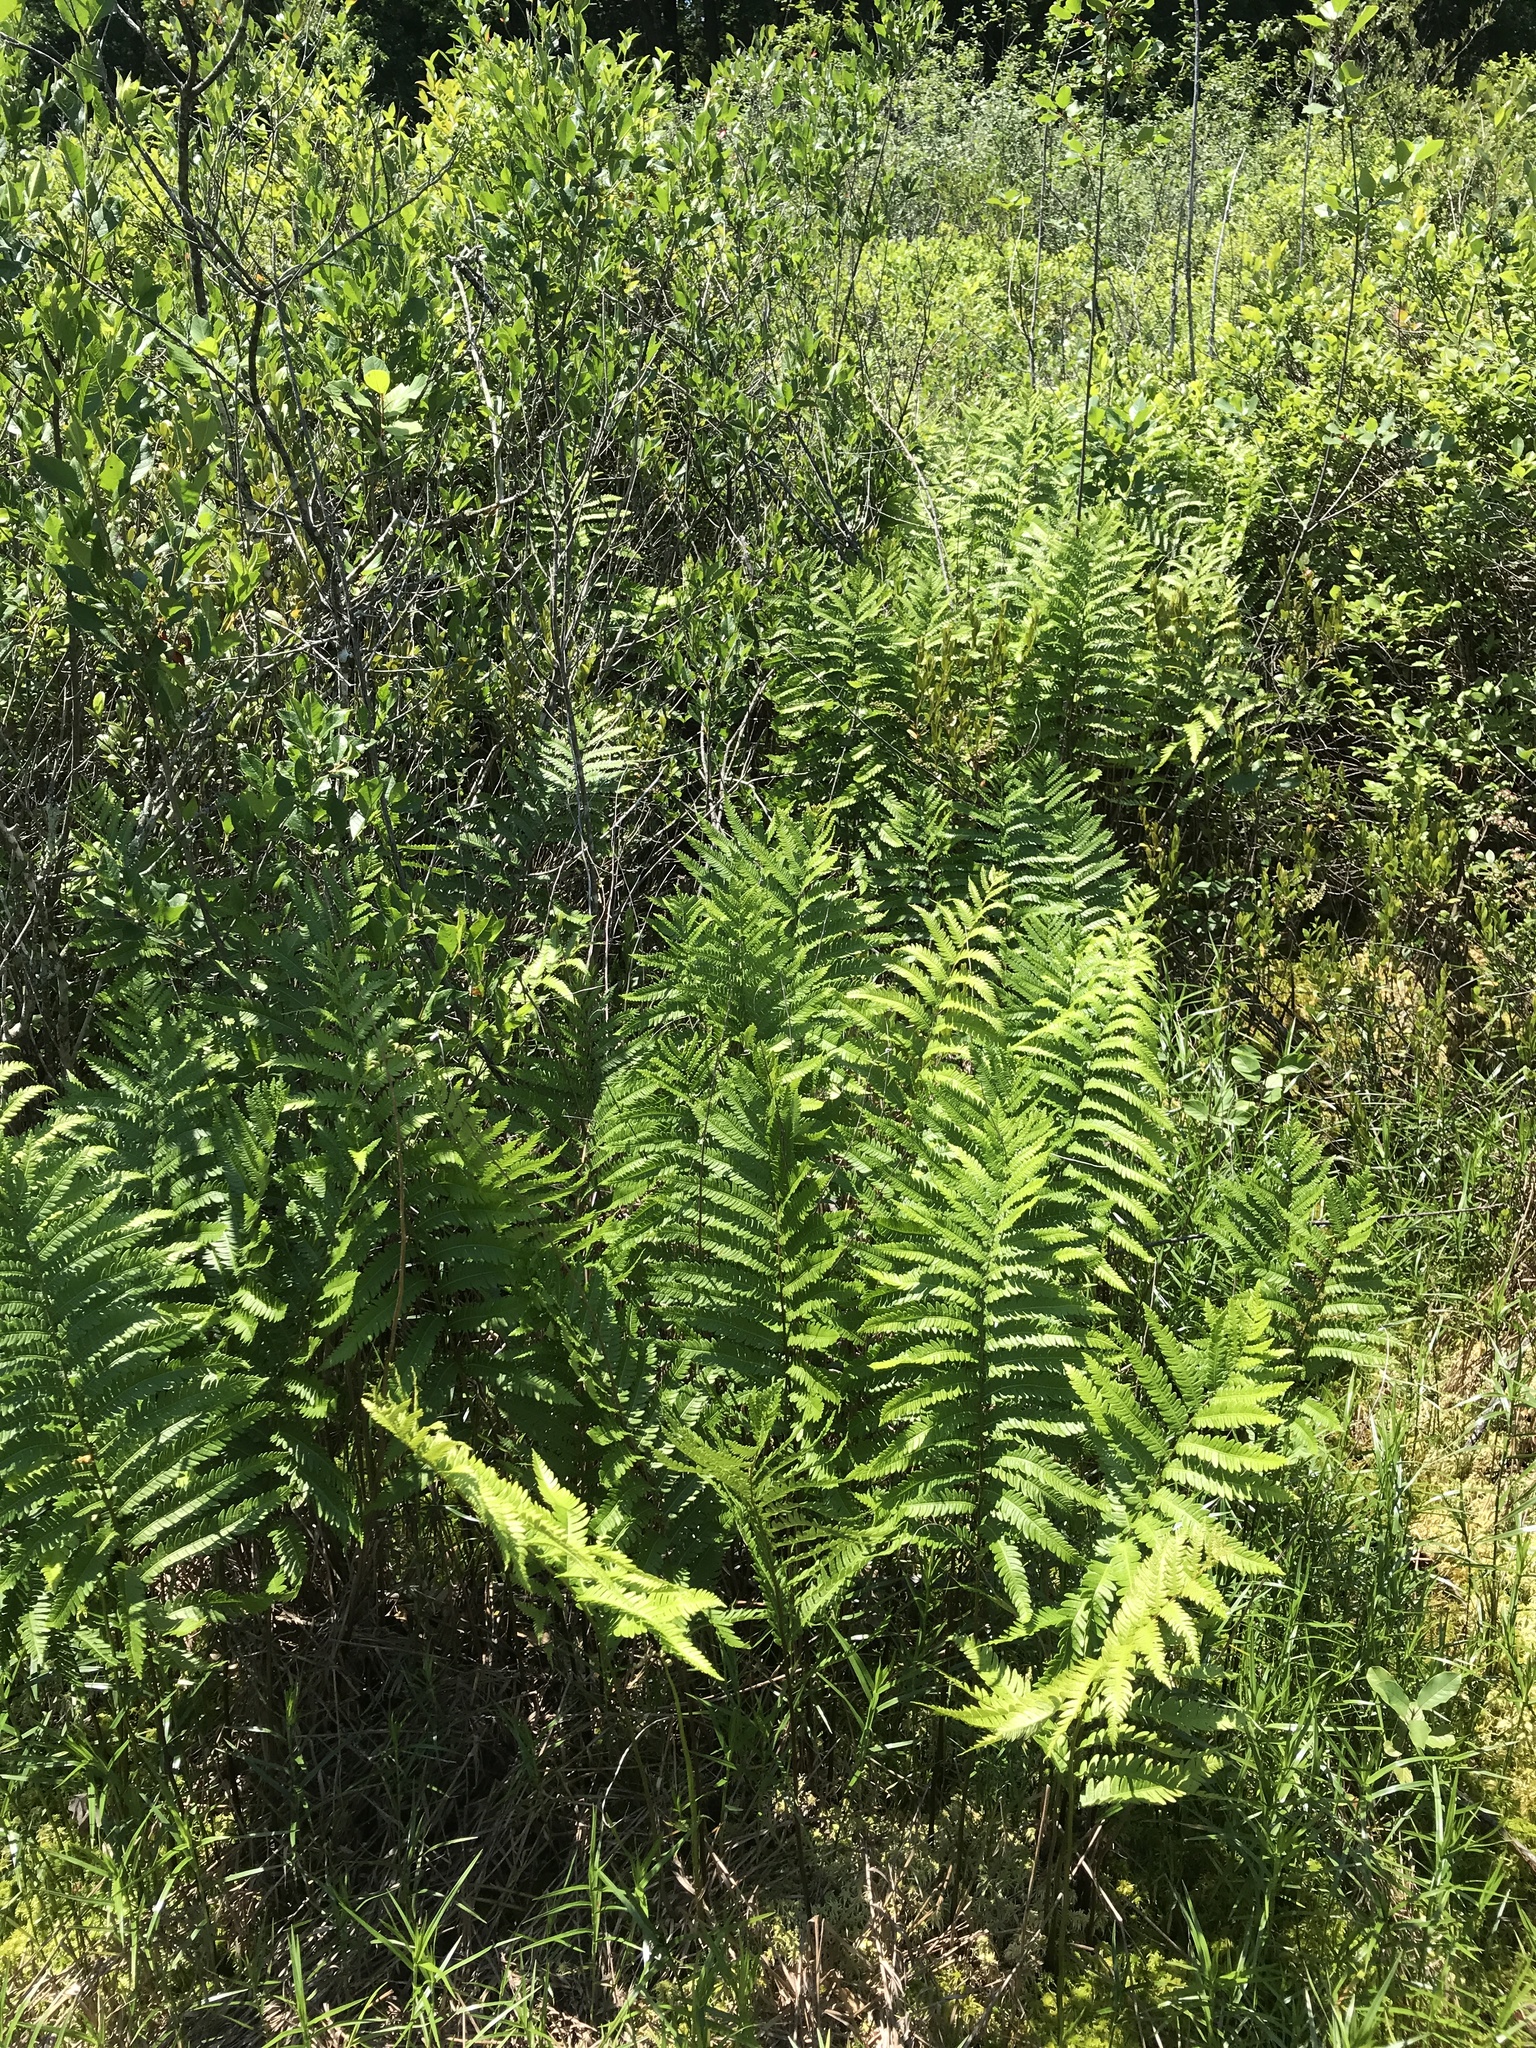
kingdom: Plantae
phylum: Tracheophyta
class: Polypodiopsida
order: Polypodiales
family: Blechnaceae
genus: Anchistea
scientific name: Anchistea virginica
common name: Virginia chain fern
